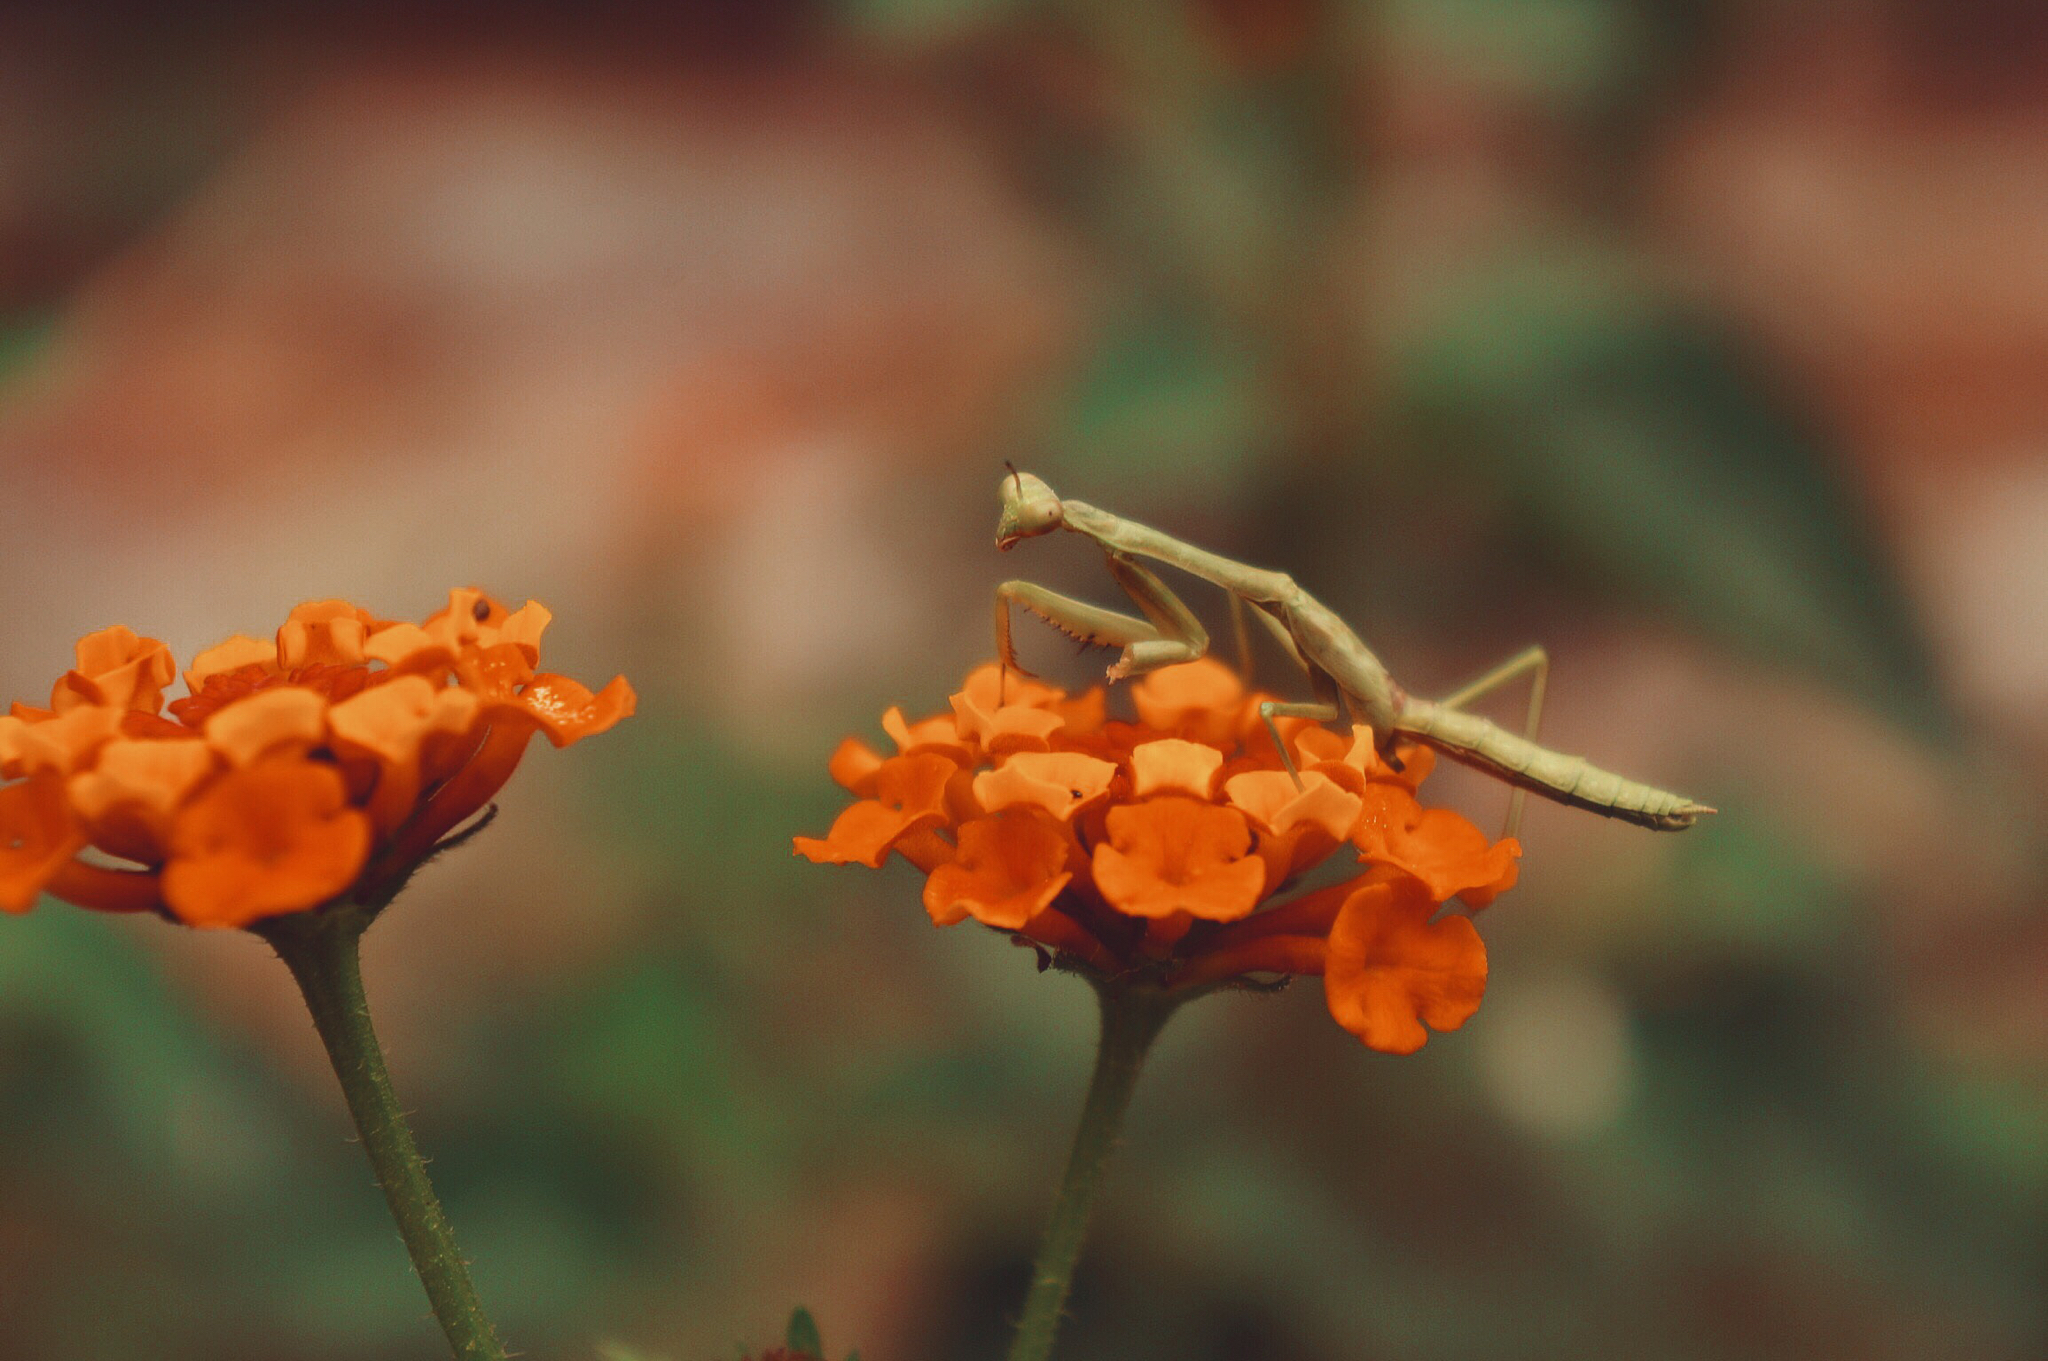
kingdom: Plantae
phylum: Tracheophyta
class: Magnoliopsida
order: Lamiales
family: Verbenaceae
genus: Lantana
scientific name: Lantana camara
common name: Lantana
